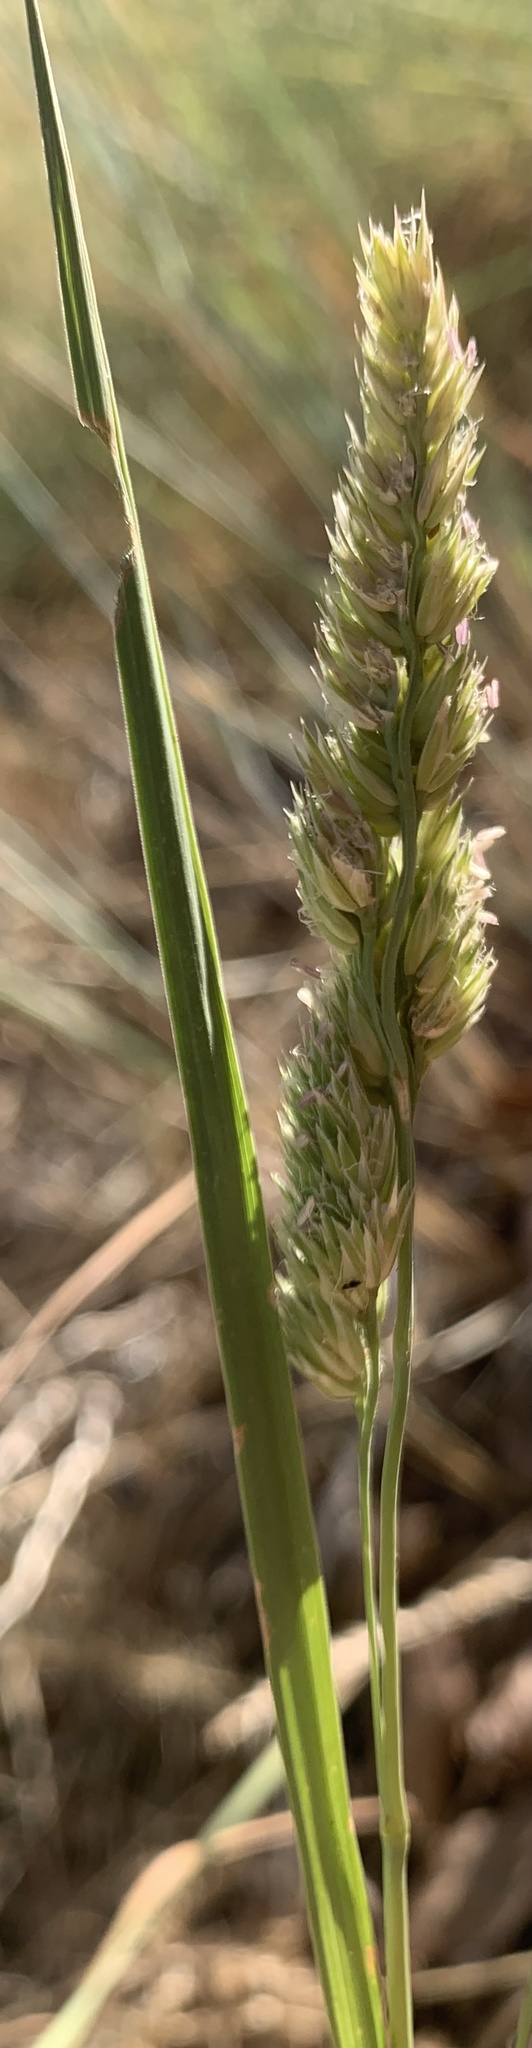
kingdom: Plantae
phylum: Tracheophyta
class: Liliopsida
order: Poales
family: Poaceae
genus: Dactylis
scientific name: Dactylis glomerata
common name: Orchardgrass
